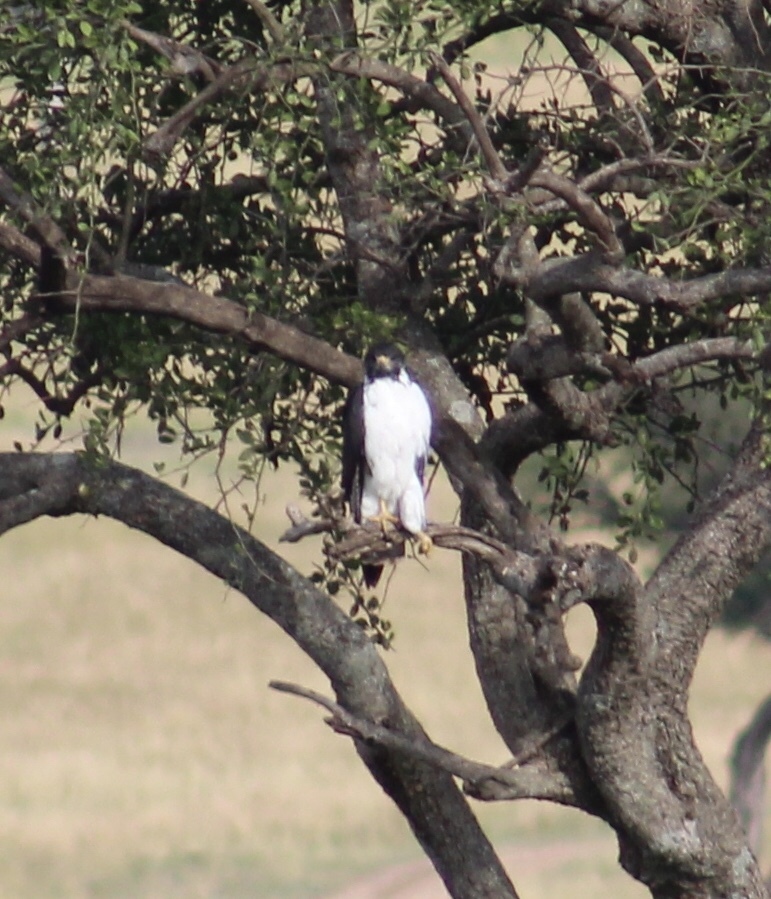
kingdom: Animalia
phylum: Chordata
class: Aves
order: Accipitriformes
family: Accipitridae
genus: Buteo
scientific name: Buteo augur
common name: Augur buzzard
